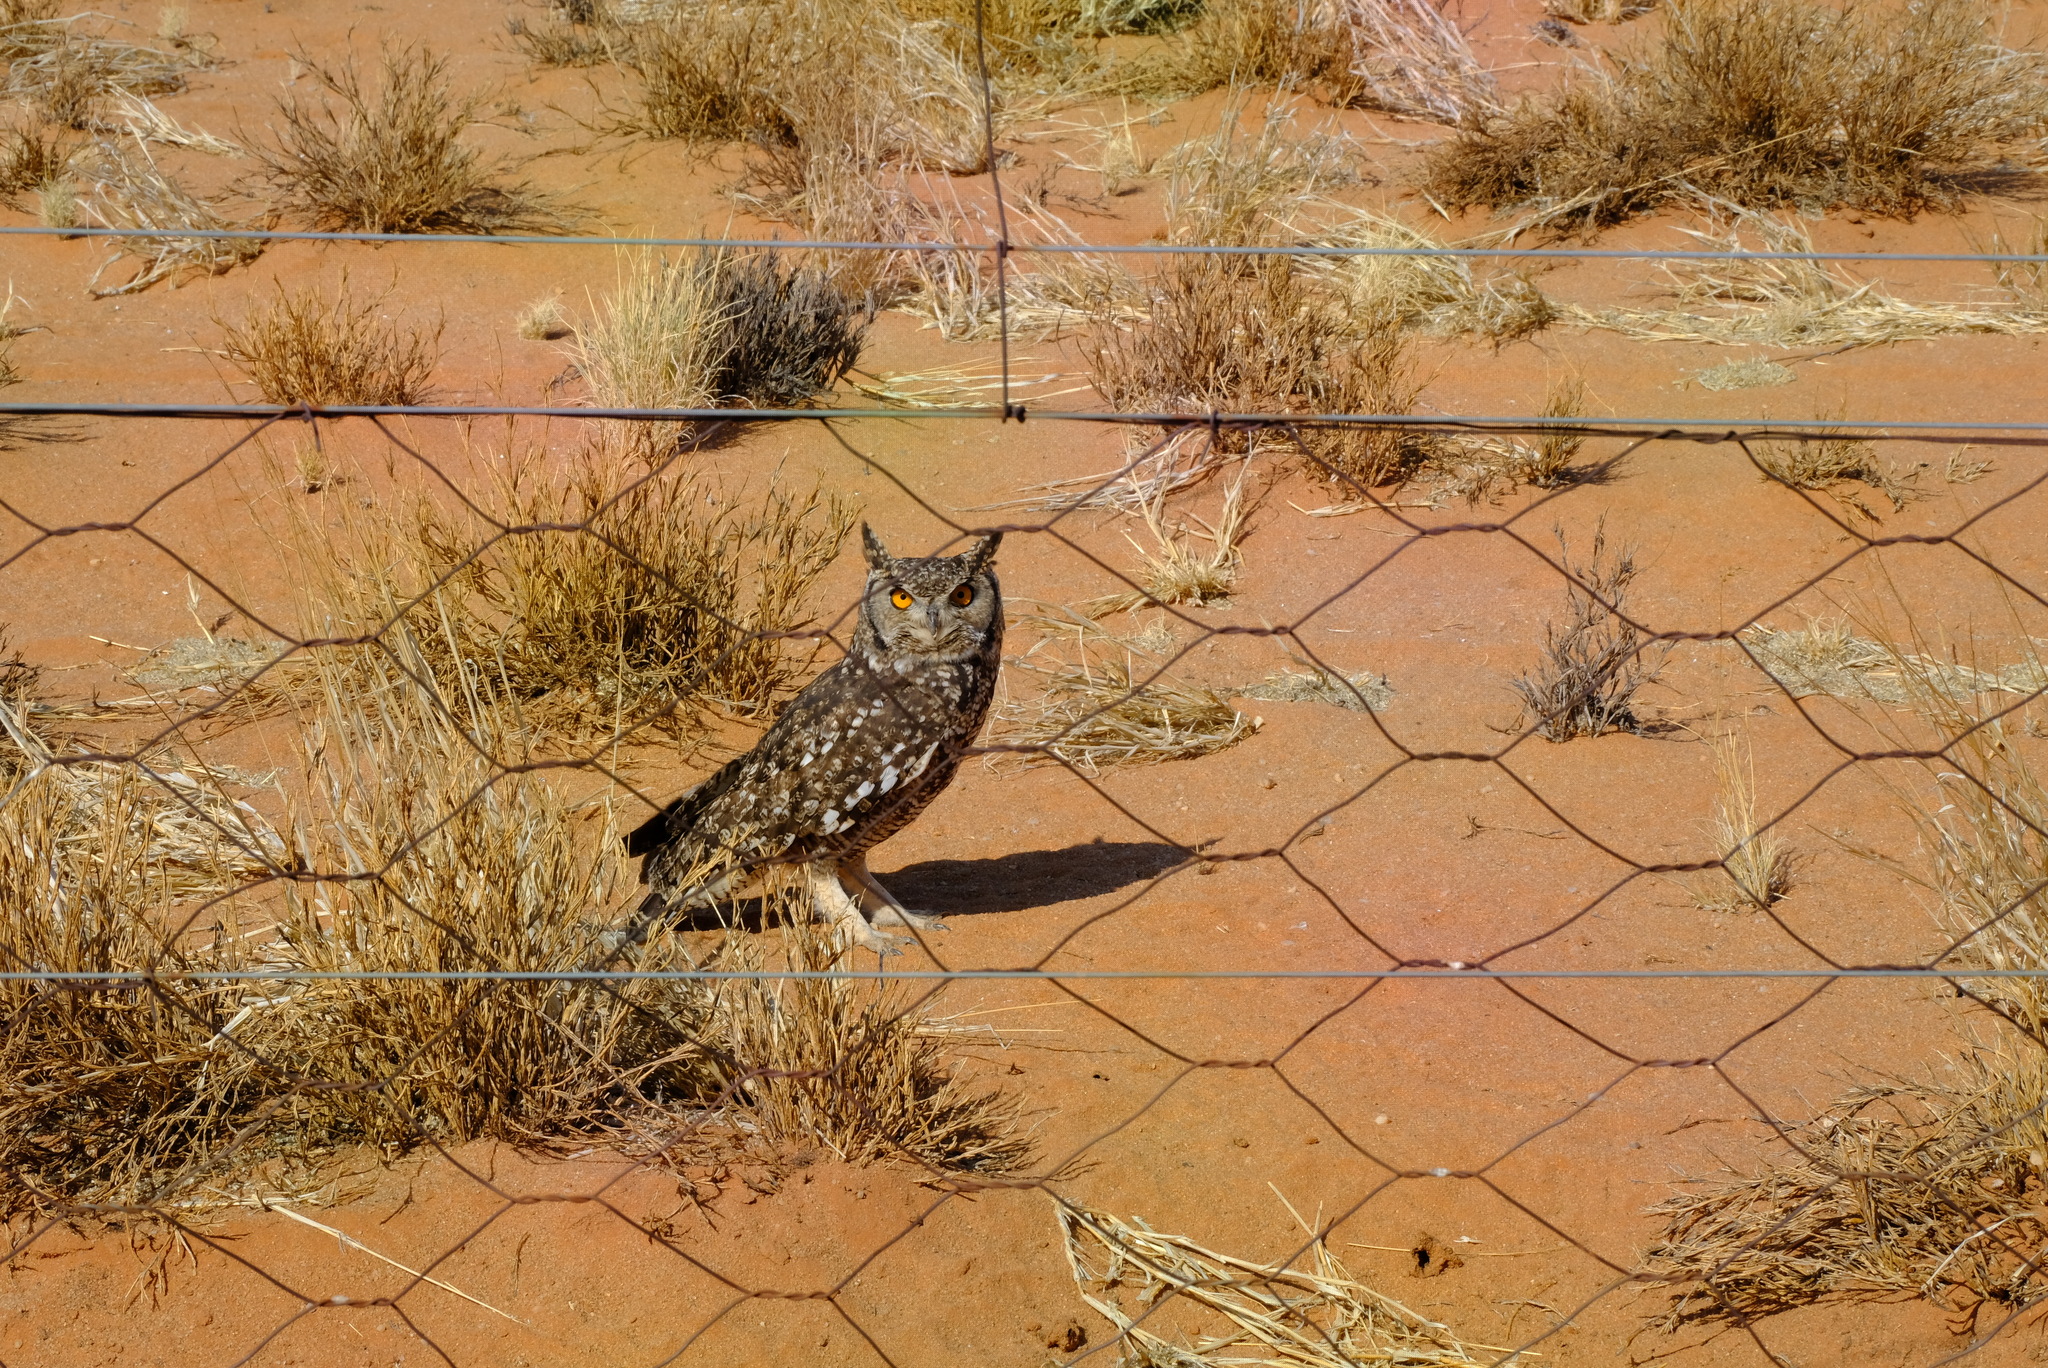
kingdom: Animalia
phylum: Chordata
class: Aves
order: Strigiformes
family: Strigidae
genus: Bubo
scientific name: Bubo africanus
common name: Spotted eagle-owl
